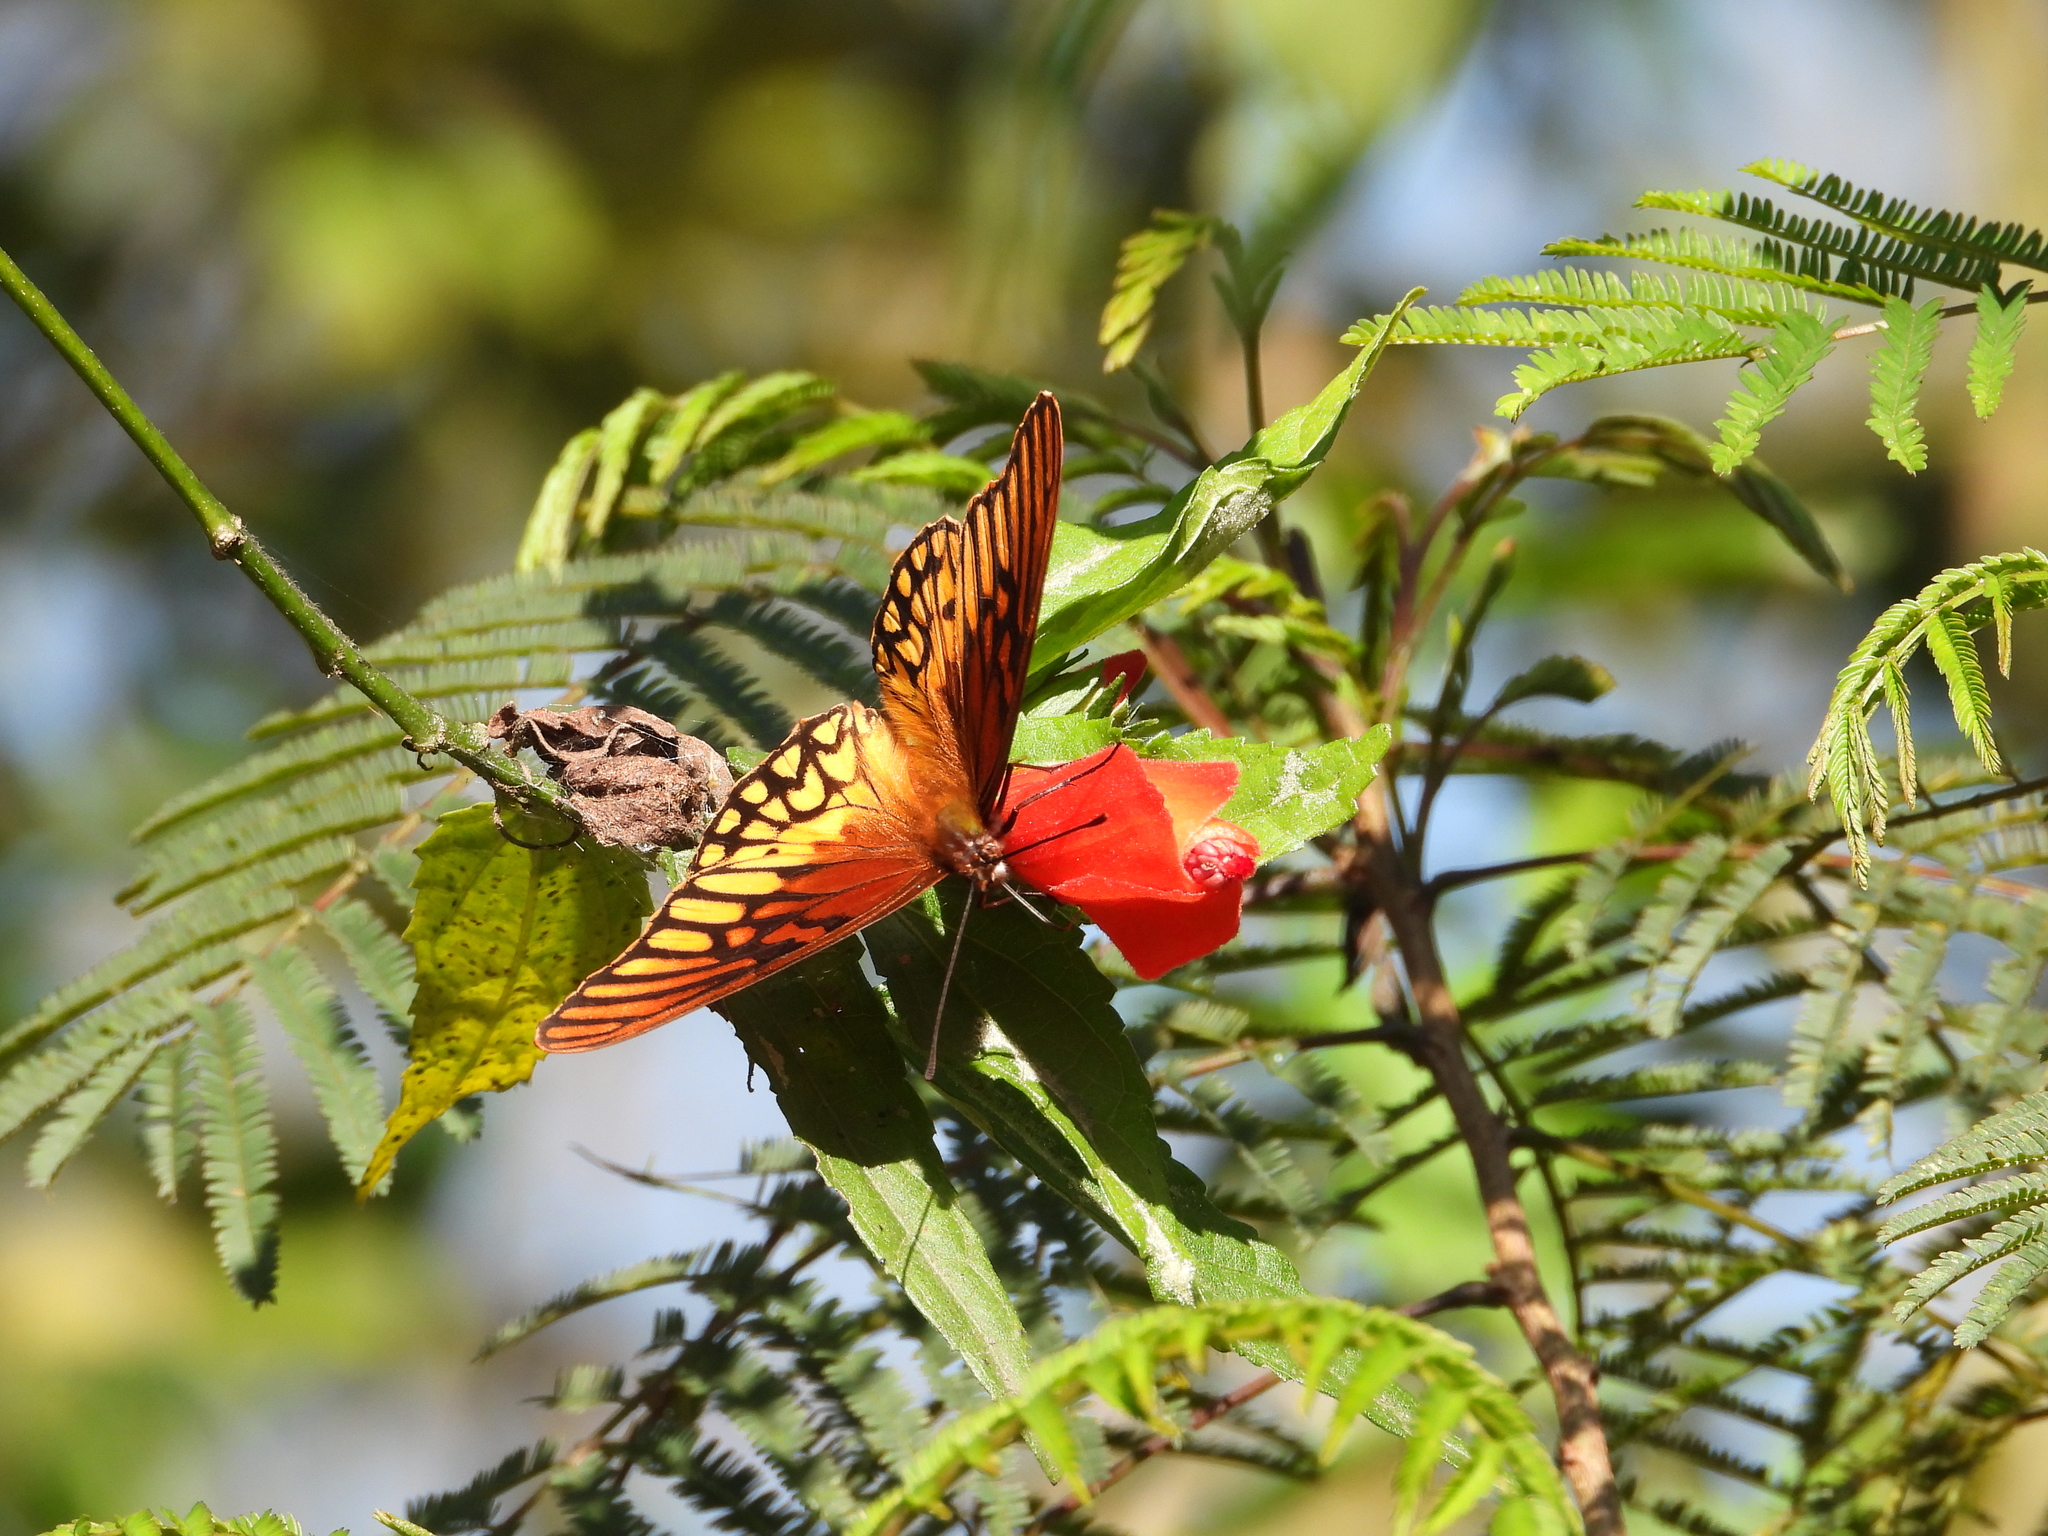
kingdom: Animalia
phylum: Arthropoda
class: Insecta
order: Lepidoptera
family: Nymphalidae
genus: Dione
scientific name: Dione moneta
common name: Mexican silverspot
